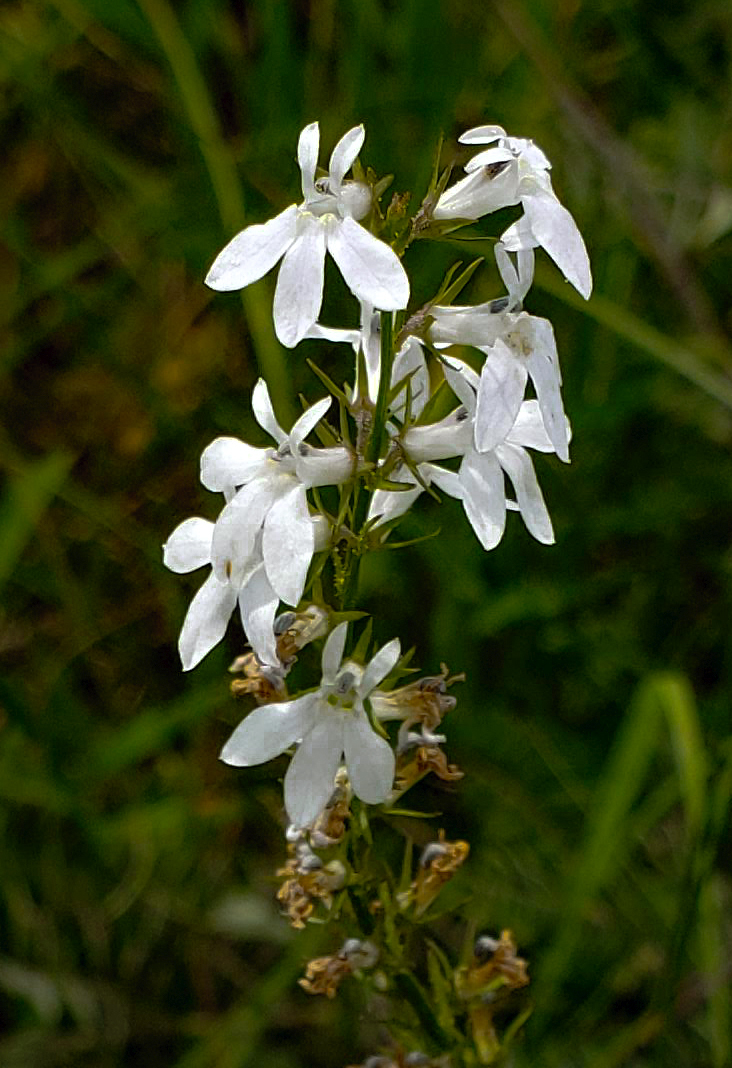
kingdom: Plantae
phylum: Tracheophyta
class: Magnoliopsida
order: Asterales
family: Campanulaceae
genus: Lobelia
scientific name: Lobelia spicata
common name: Pale-spike lobelia
